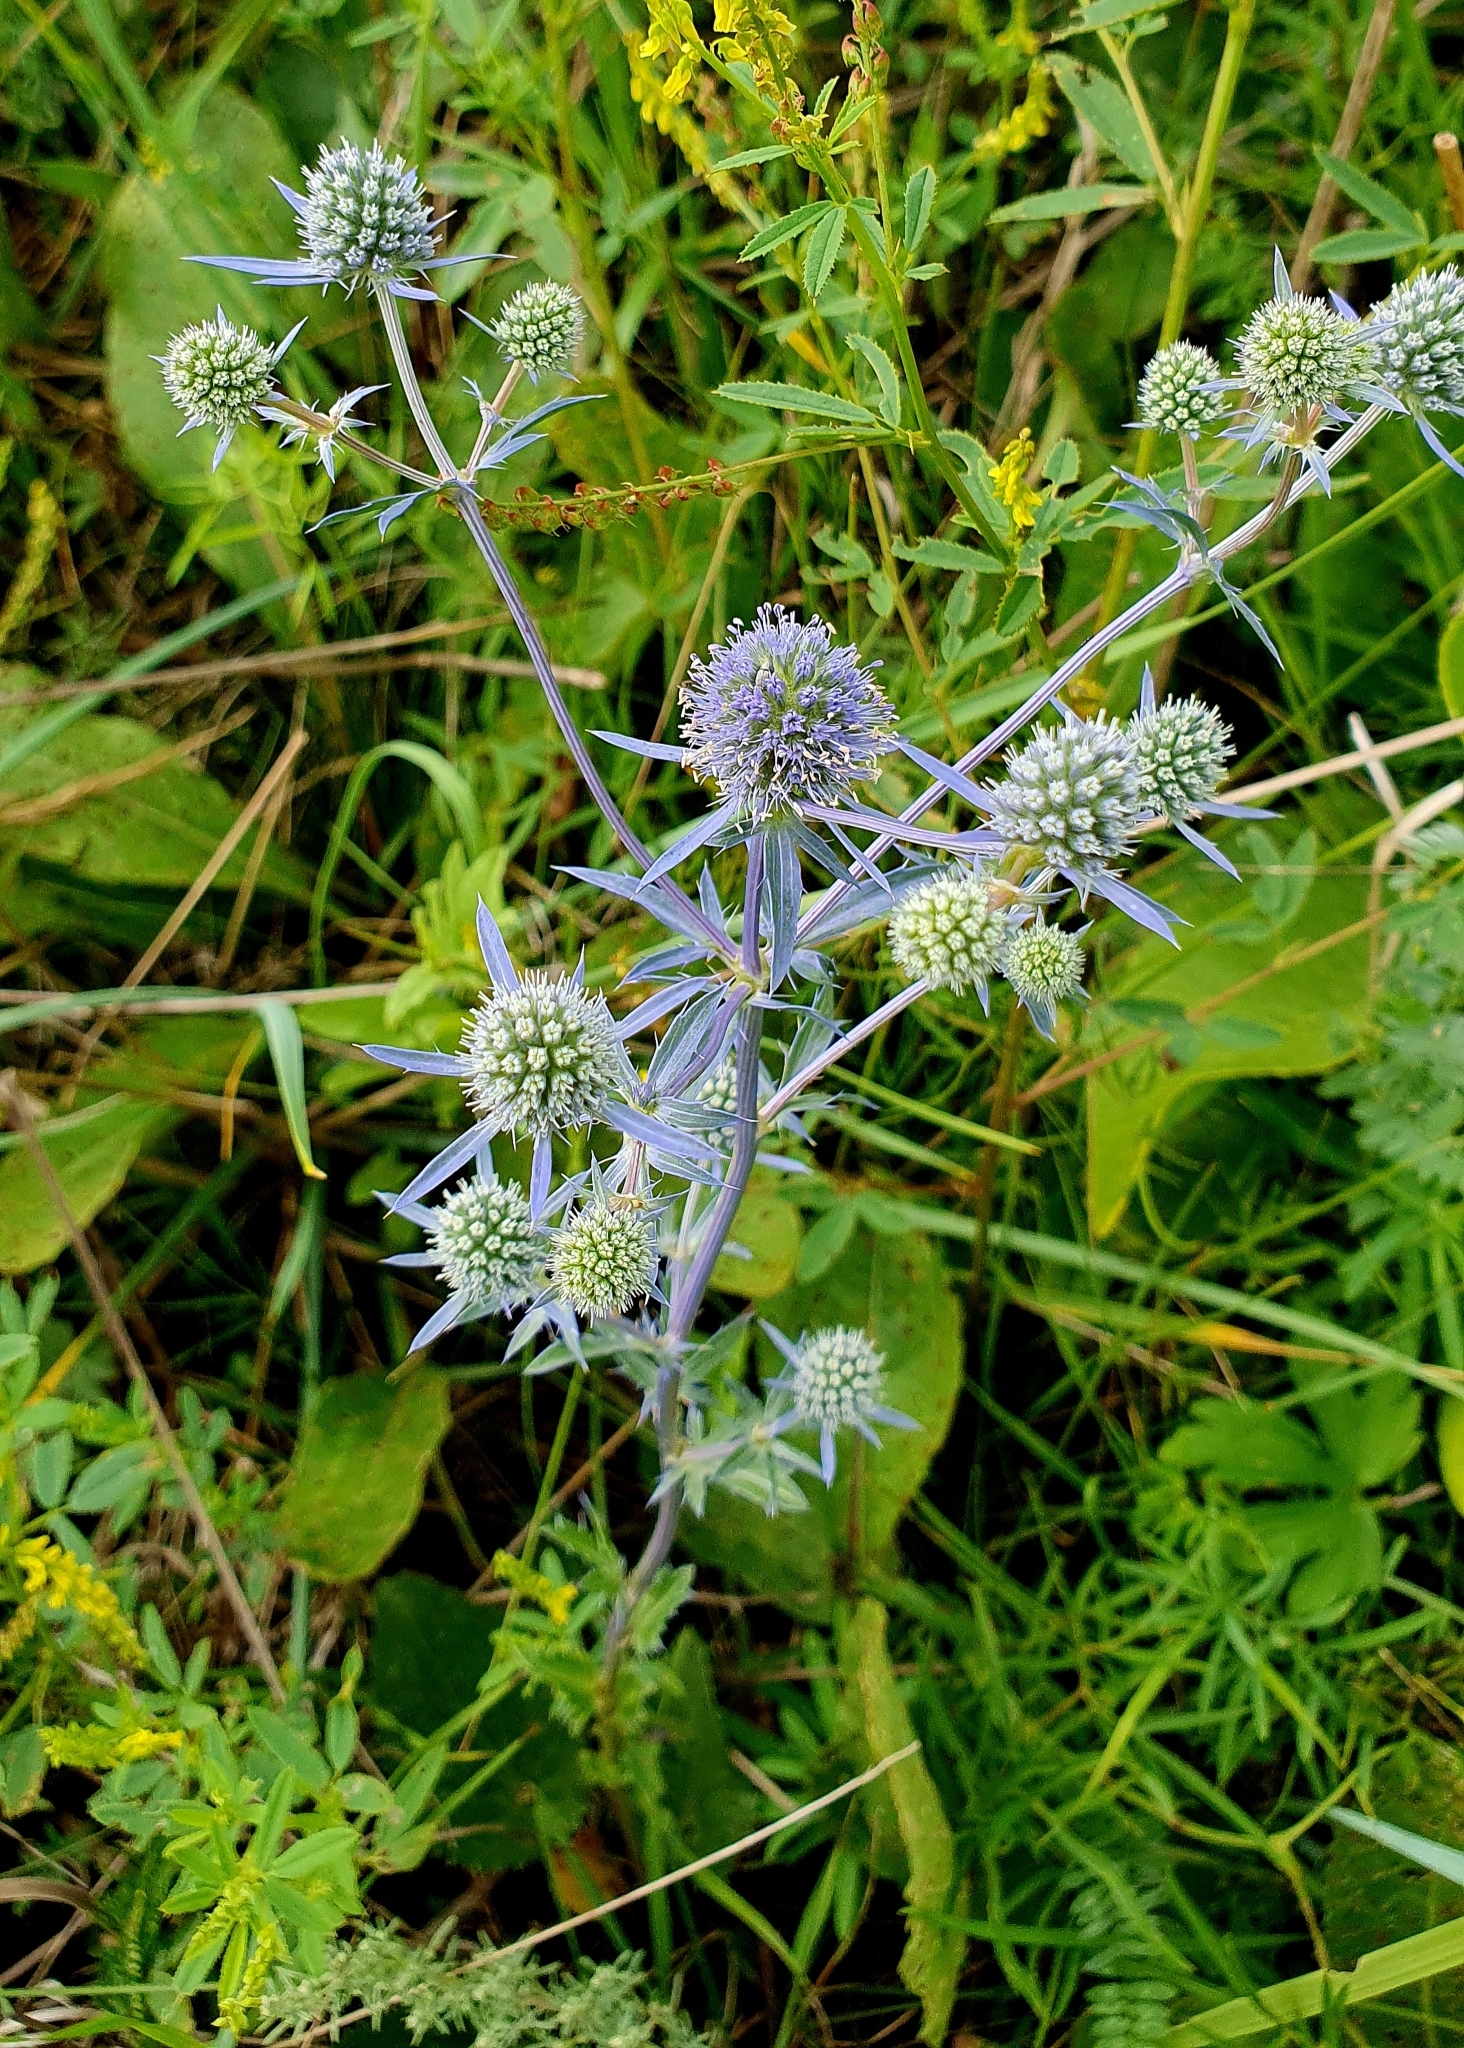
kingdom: Plantae
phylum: Tracheophyta
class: Magnoliopsida
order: Apiales
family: Apiaceae
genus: Eryngium
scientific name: Eryngium planum
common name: Blue eryngo
